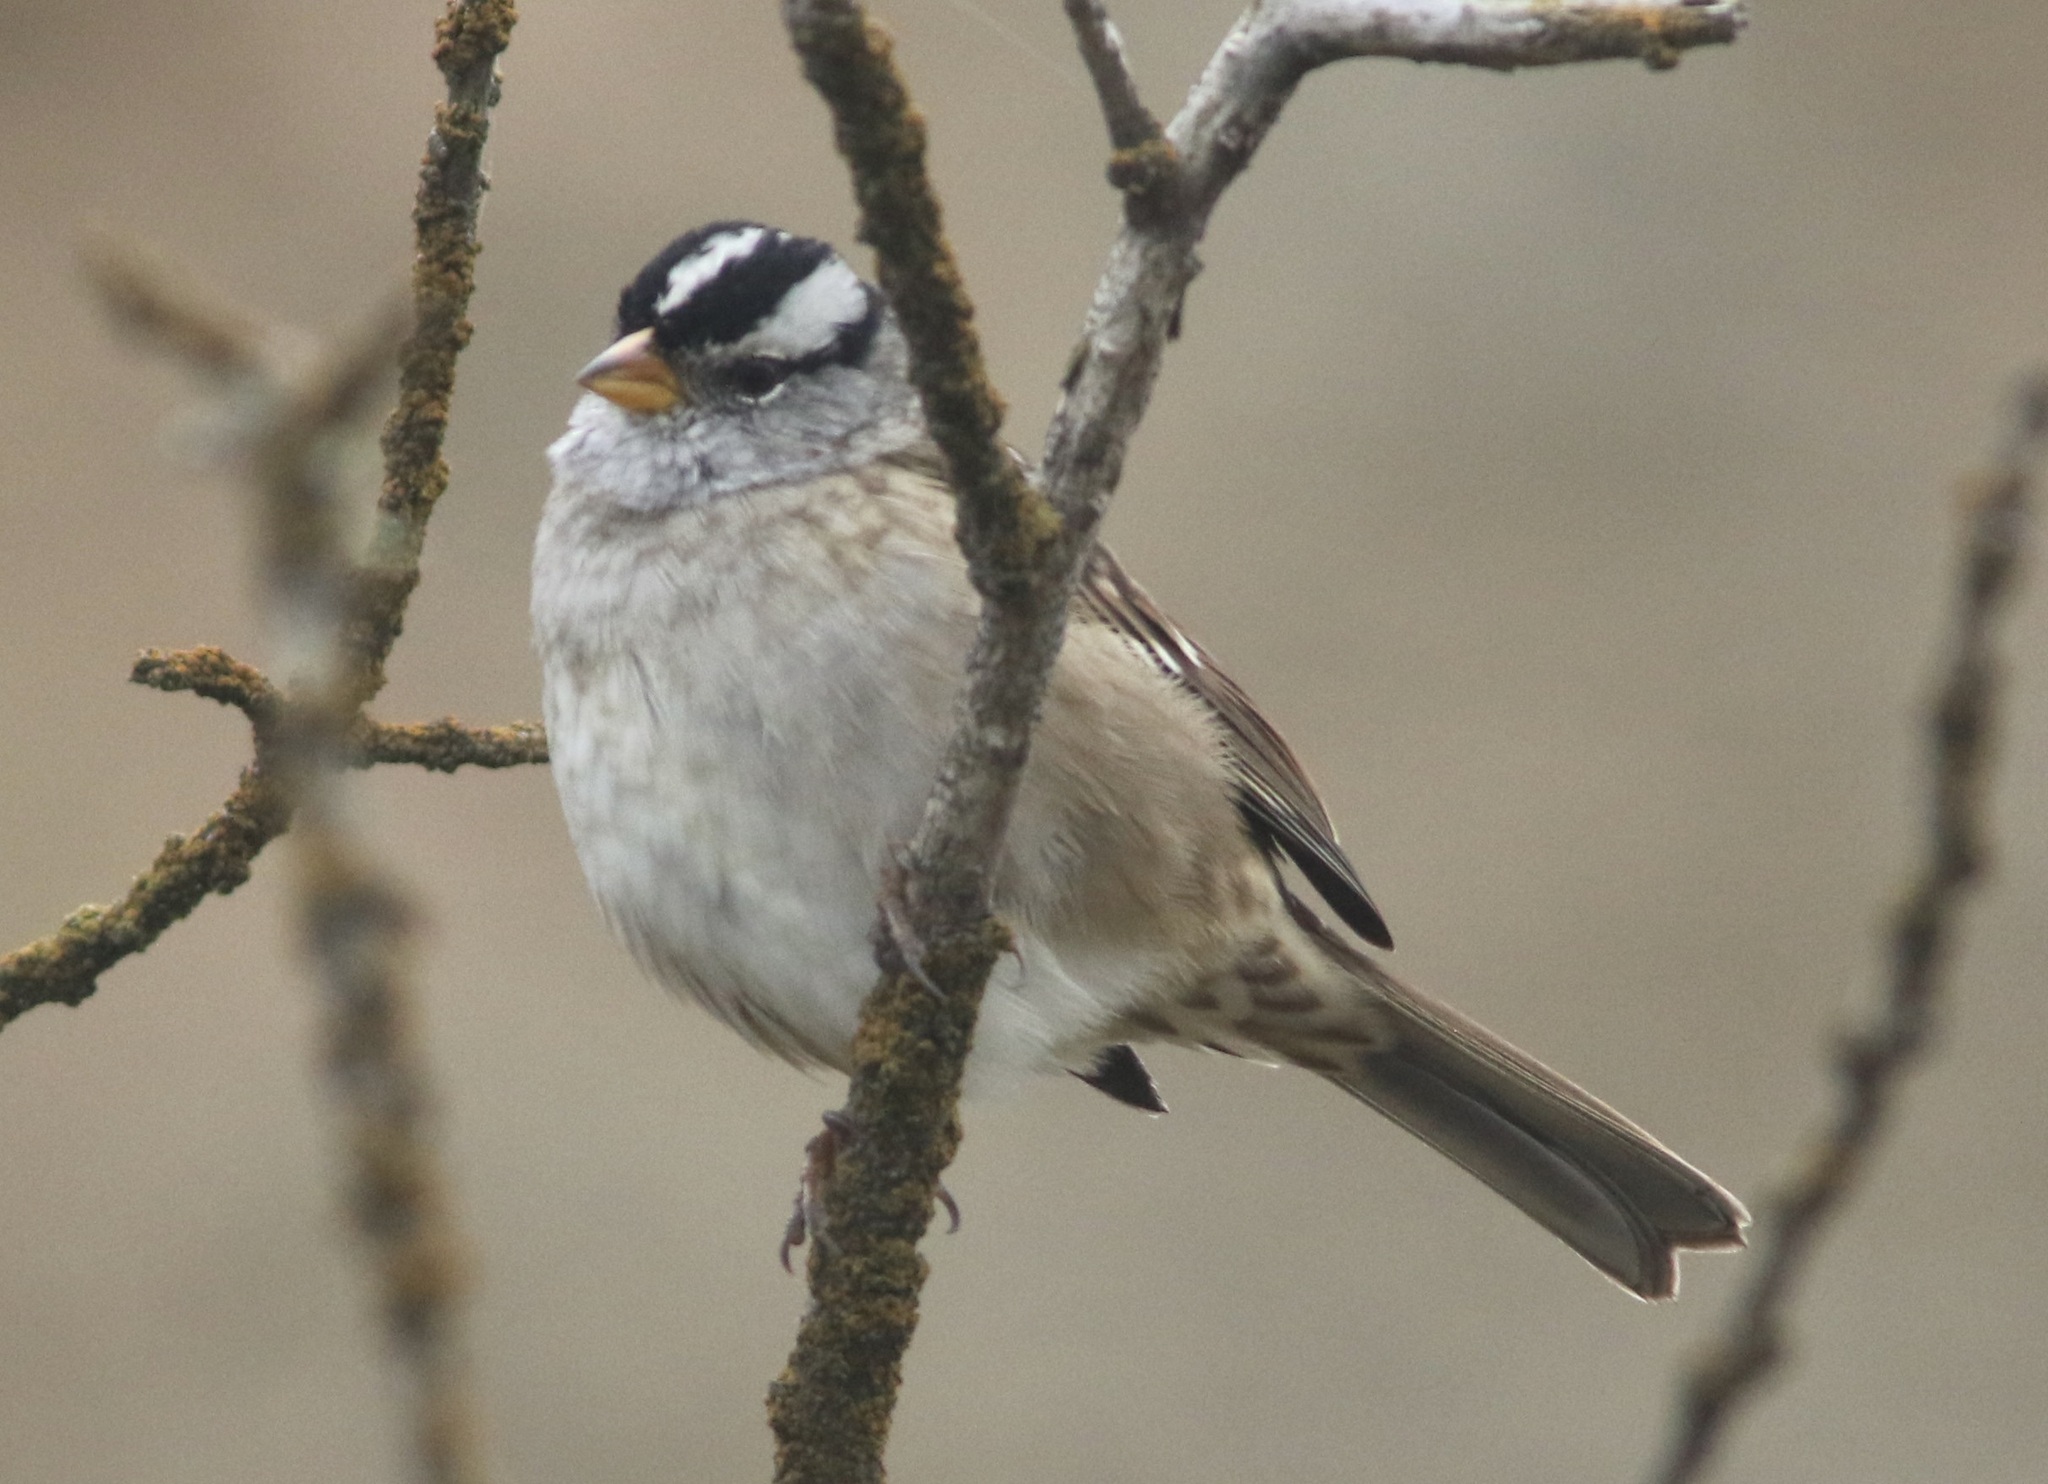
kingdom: Animalia
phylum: Chordata
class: Aves
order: Passeriformes
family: Passerellidae
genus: Zonotrichia
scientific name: Zonotrichia leucophrys
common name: White-crowned sparrow
